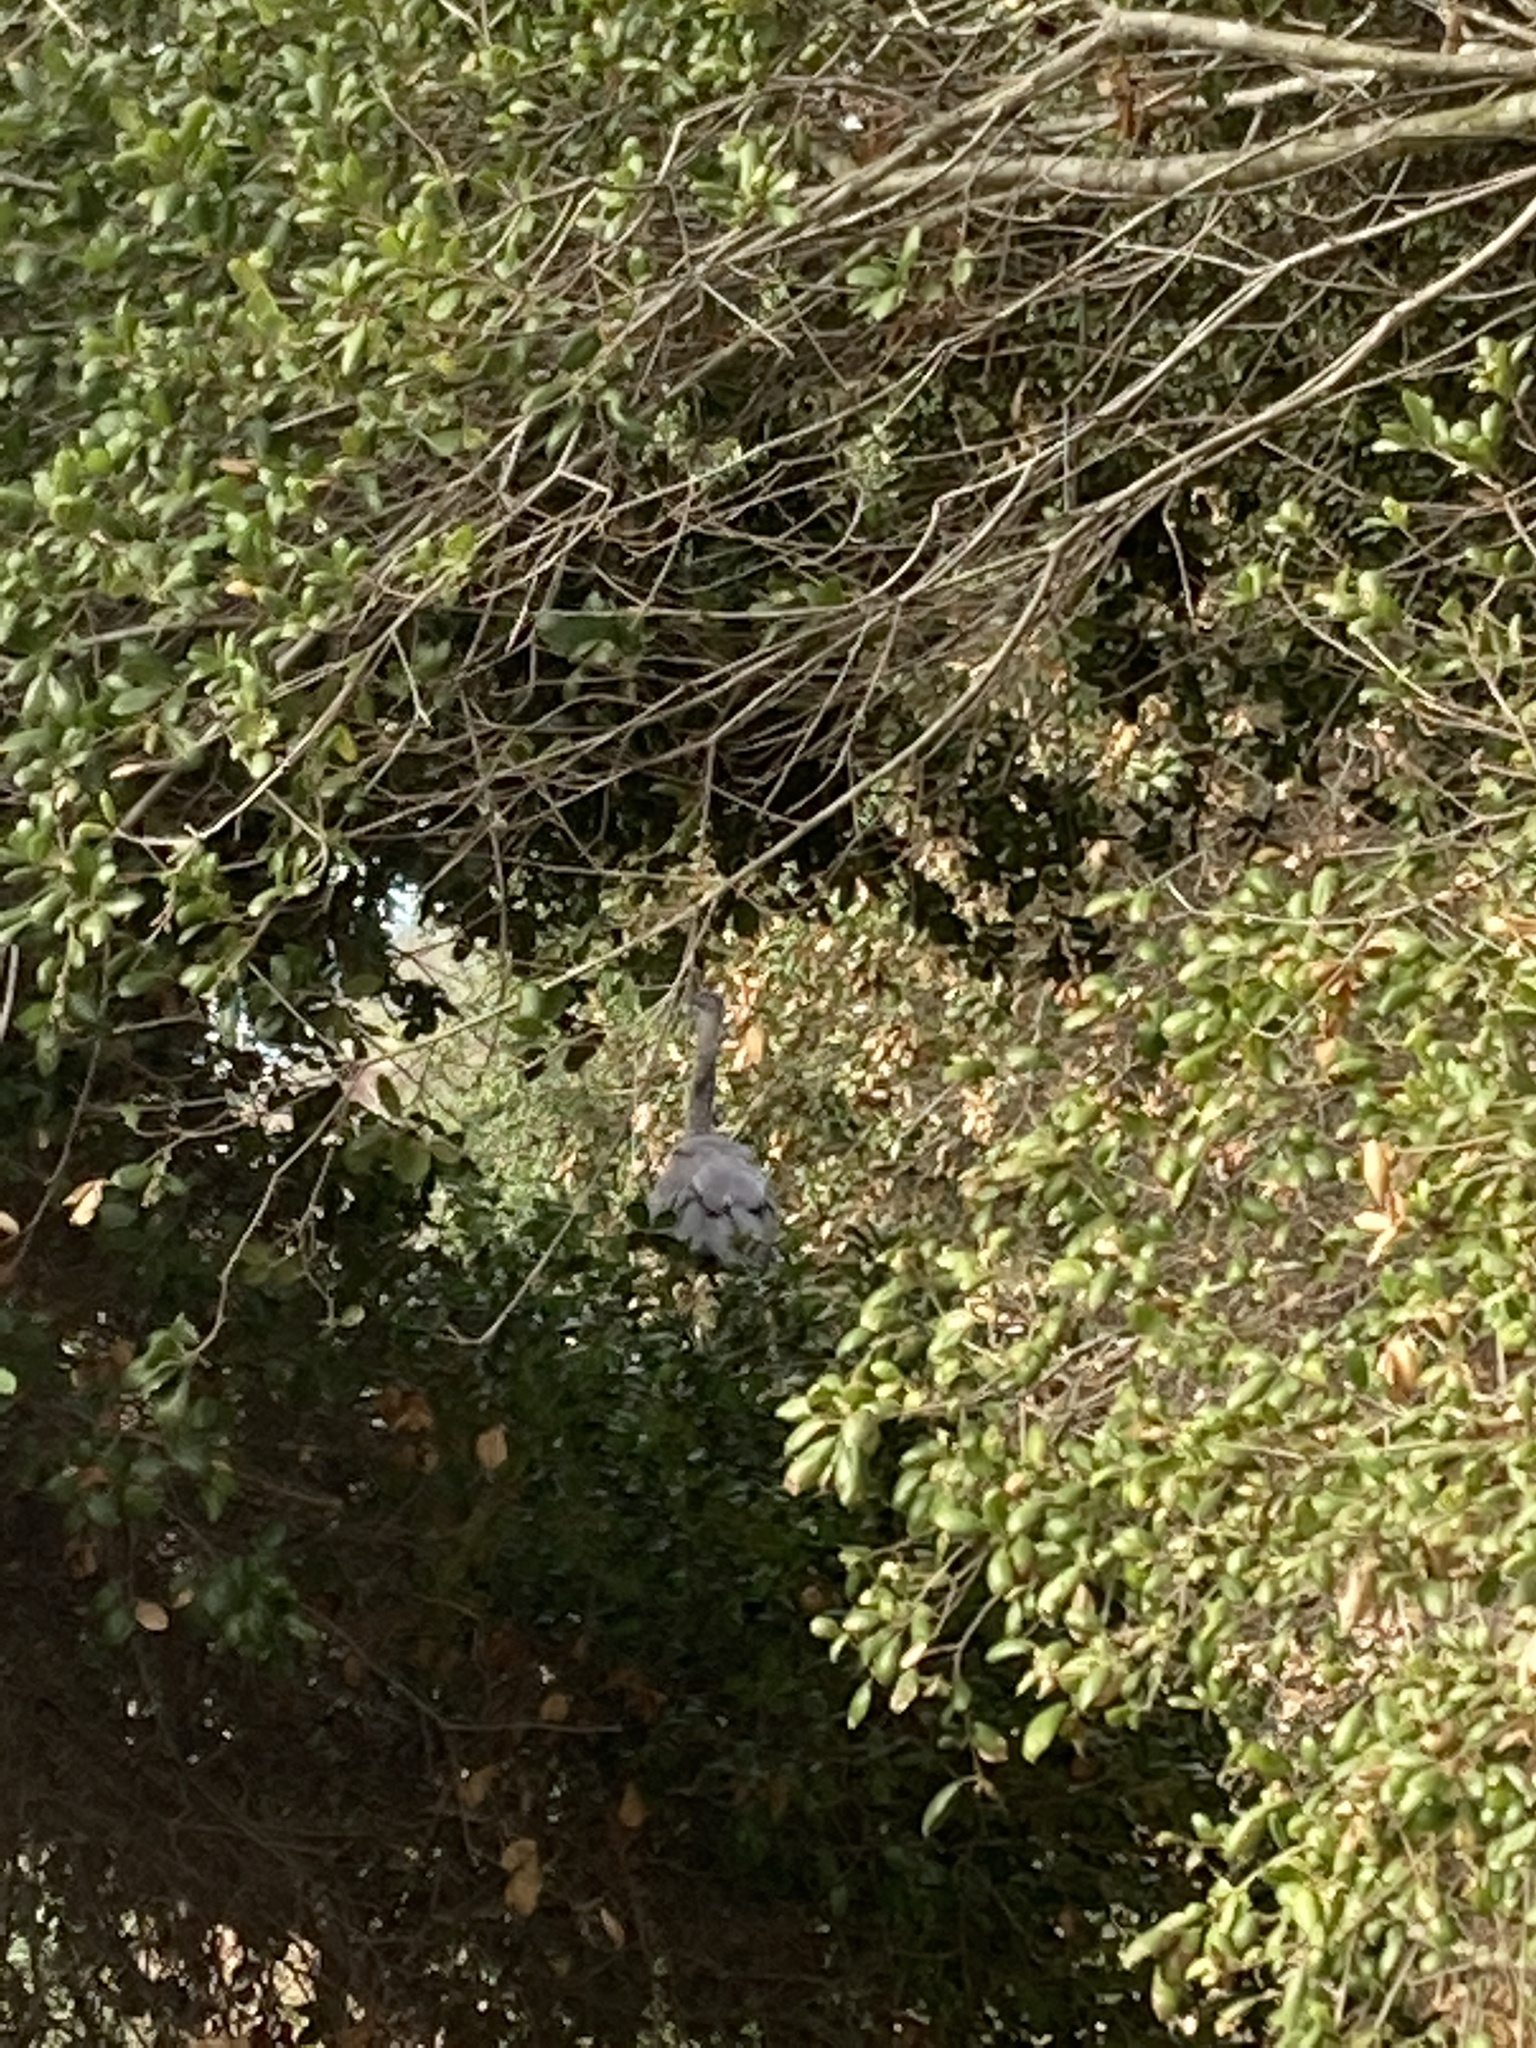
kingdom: Animalia
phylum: Chordata
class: Aves
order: Pelecaniformes
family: Ardeidae
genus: Ardea
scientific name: Ardea herodias
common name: Great blue heron
